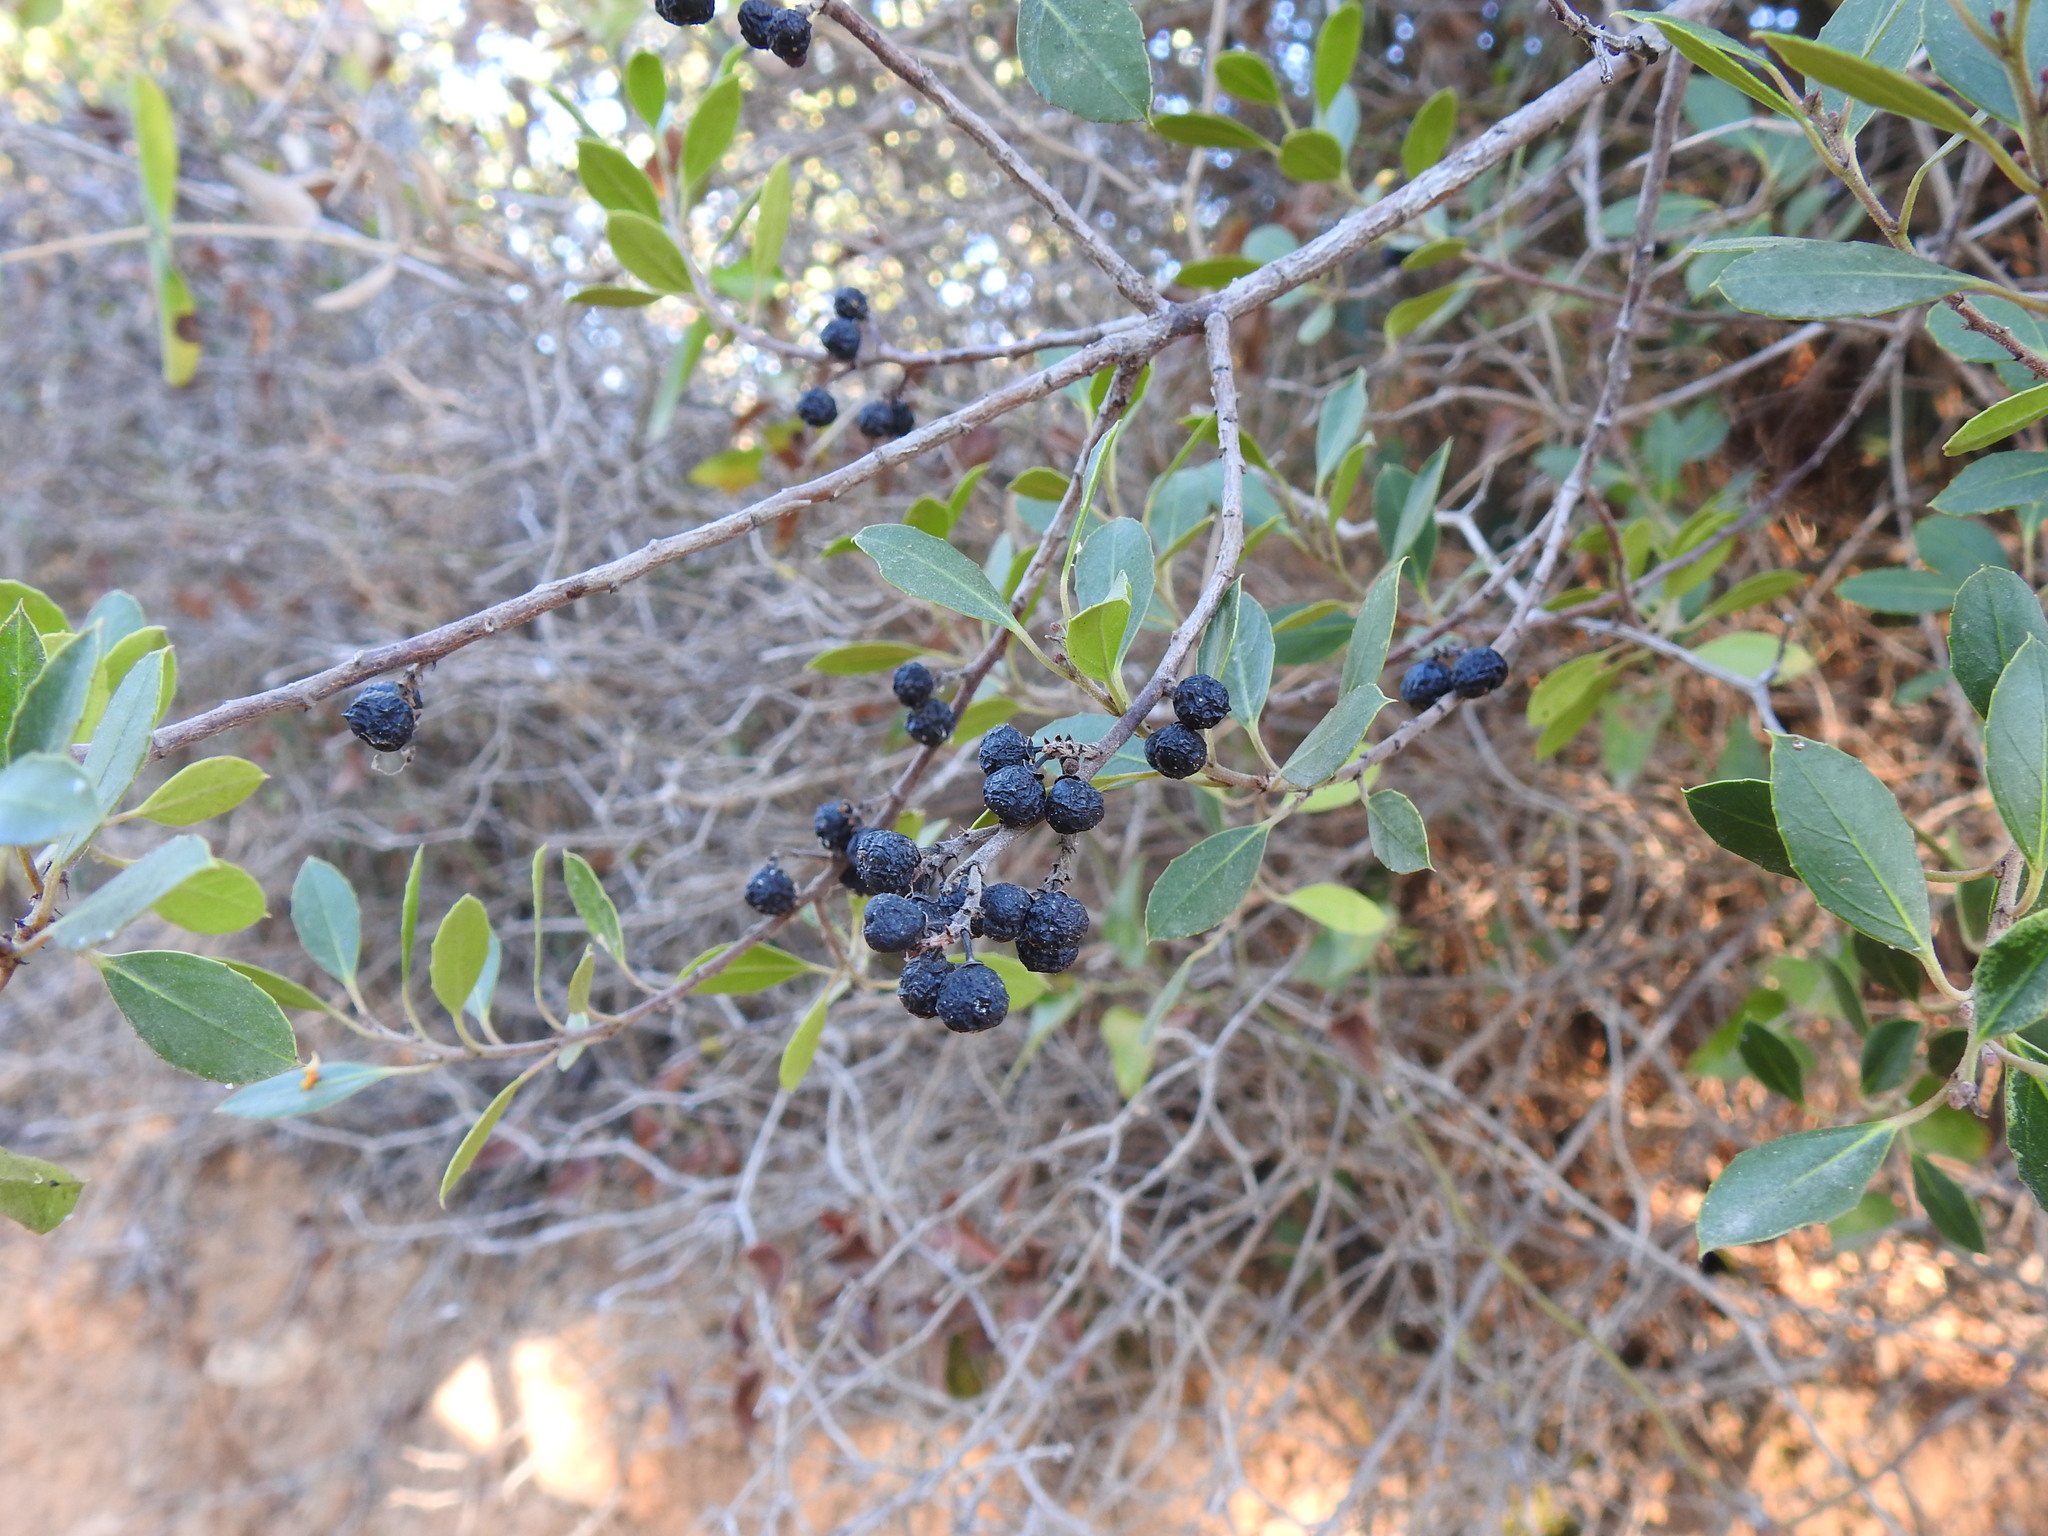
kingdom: Plantae
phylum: Tracheophyta
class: Magnoliopsida
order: Rosales
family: Rhamnaceae
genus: Rhamnus
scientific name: Rhamnus alaternus
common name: Mediterranean buckthorn
